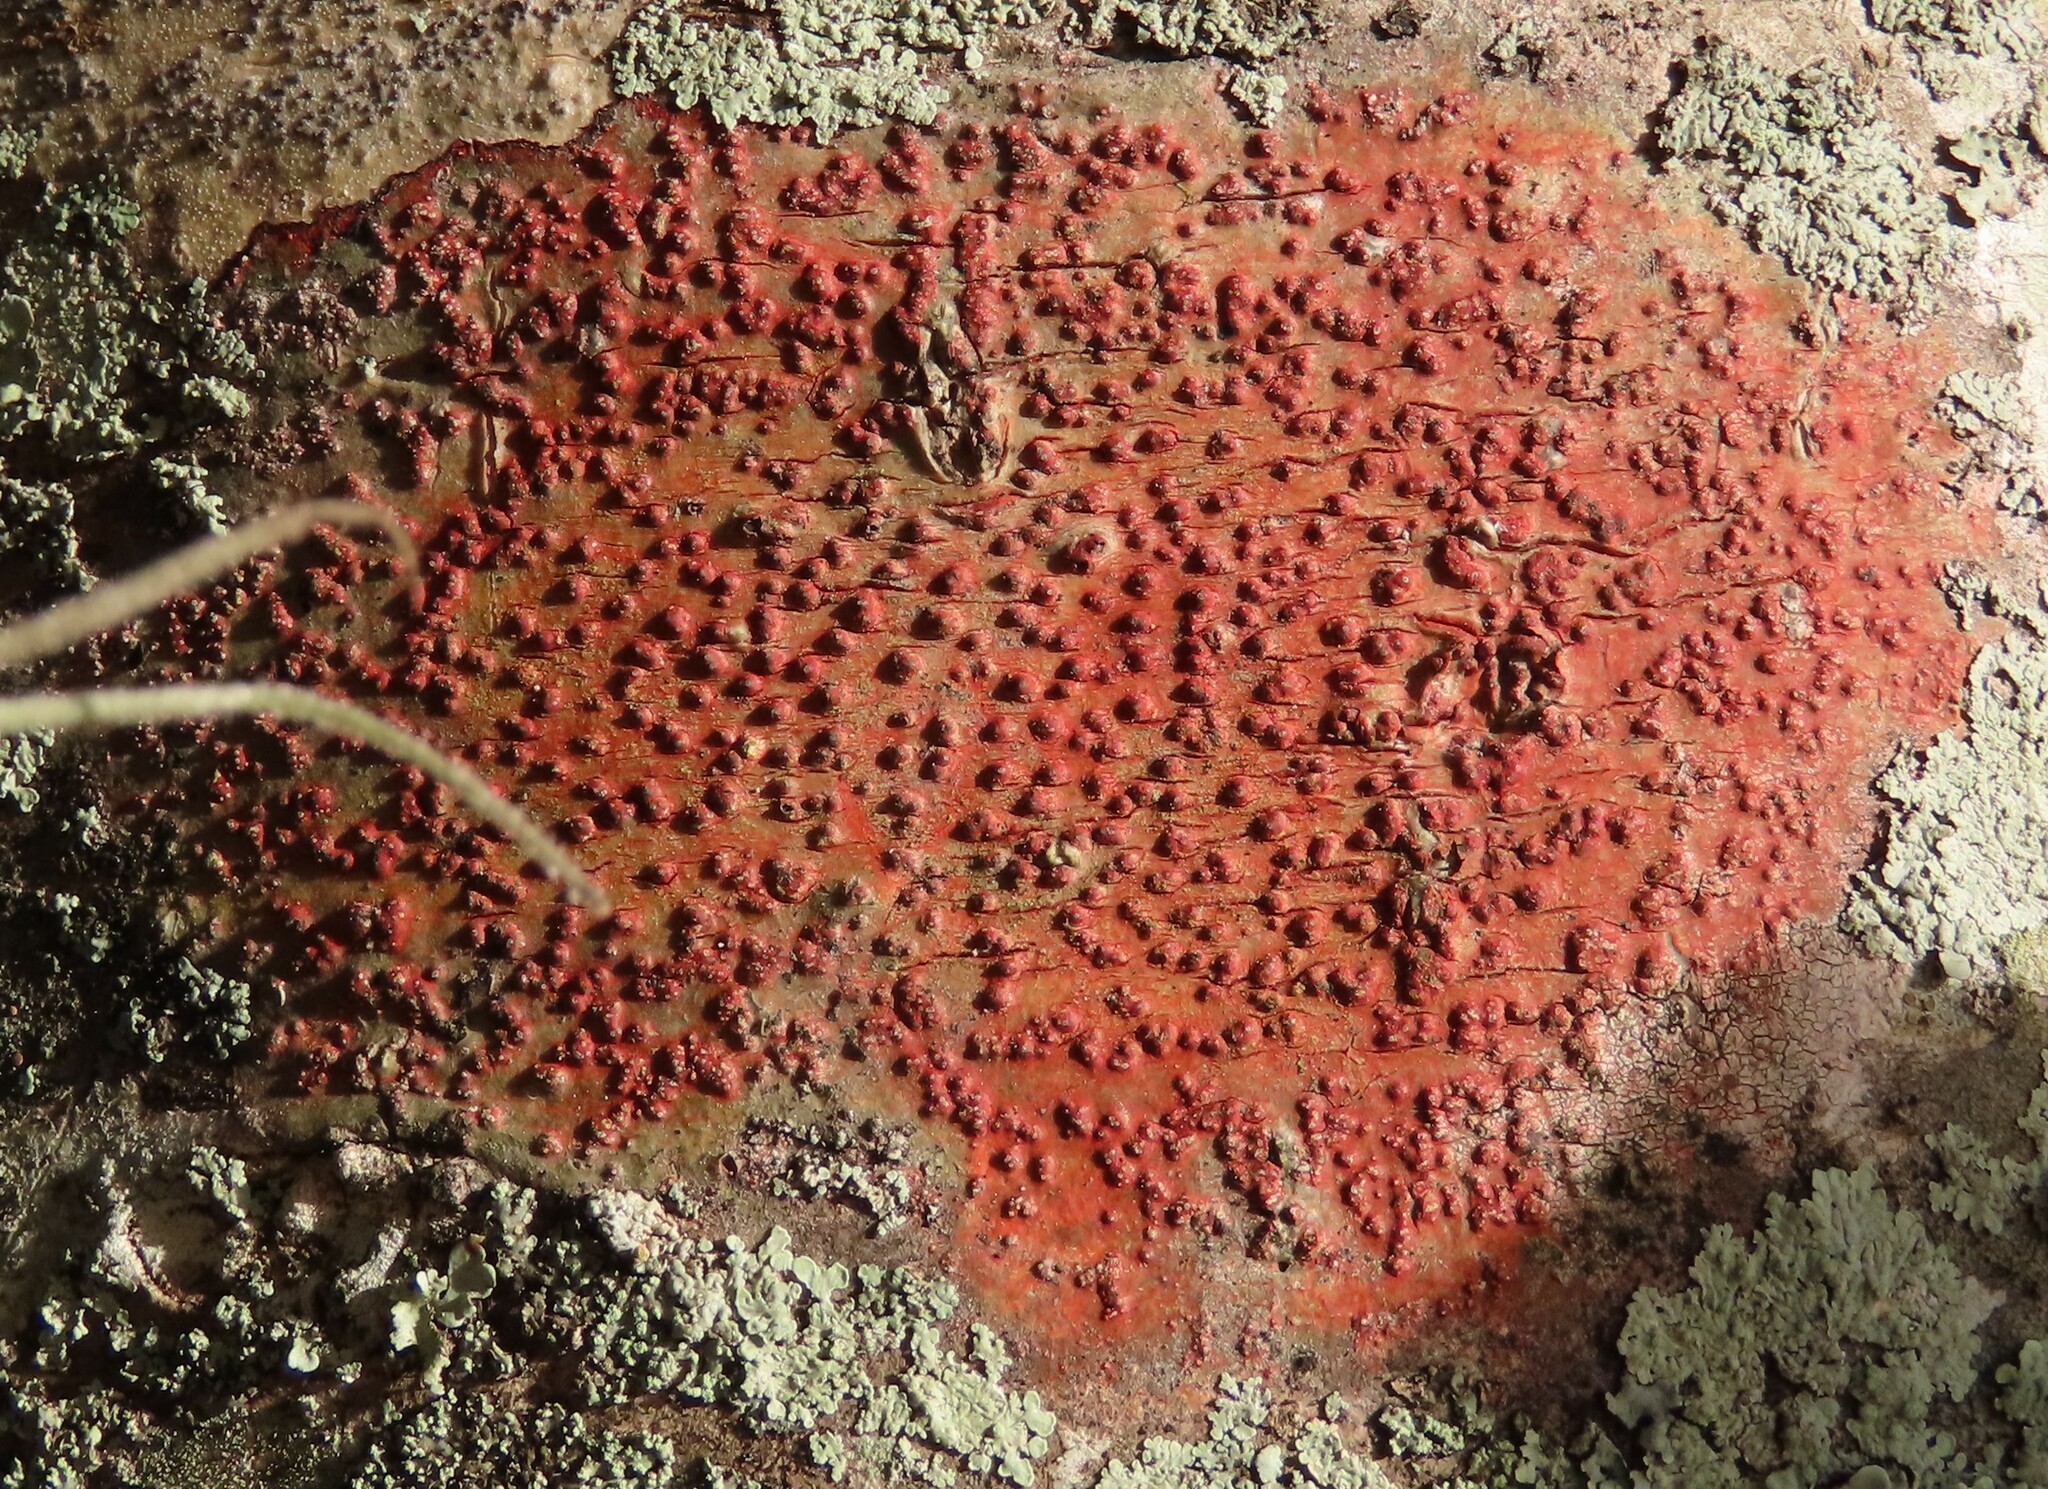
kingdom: Fungi
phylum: Ascomycota
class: Eurotiomycetes
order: Pyrenulales
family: Pyrenulaceae
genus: Pyrenula
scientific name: Pyrenula cruenta
